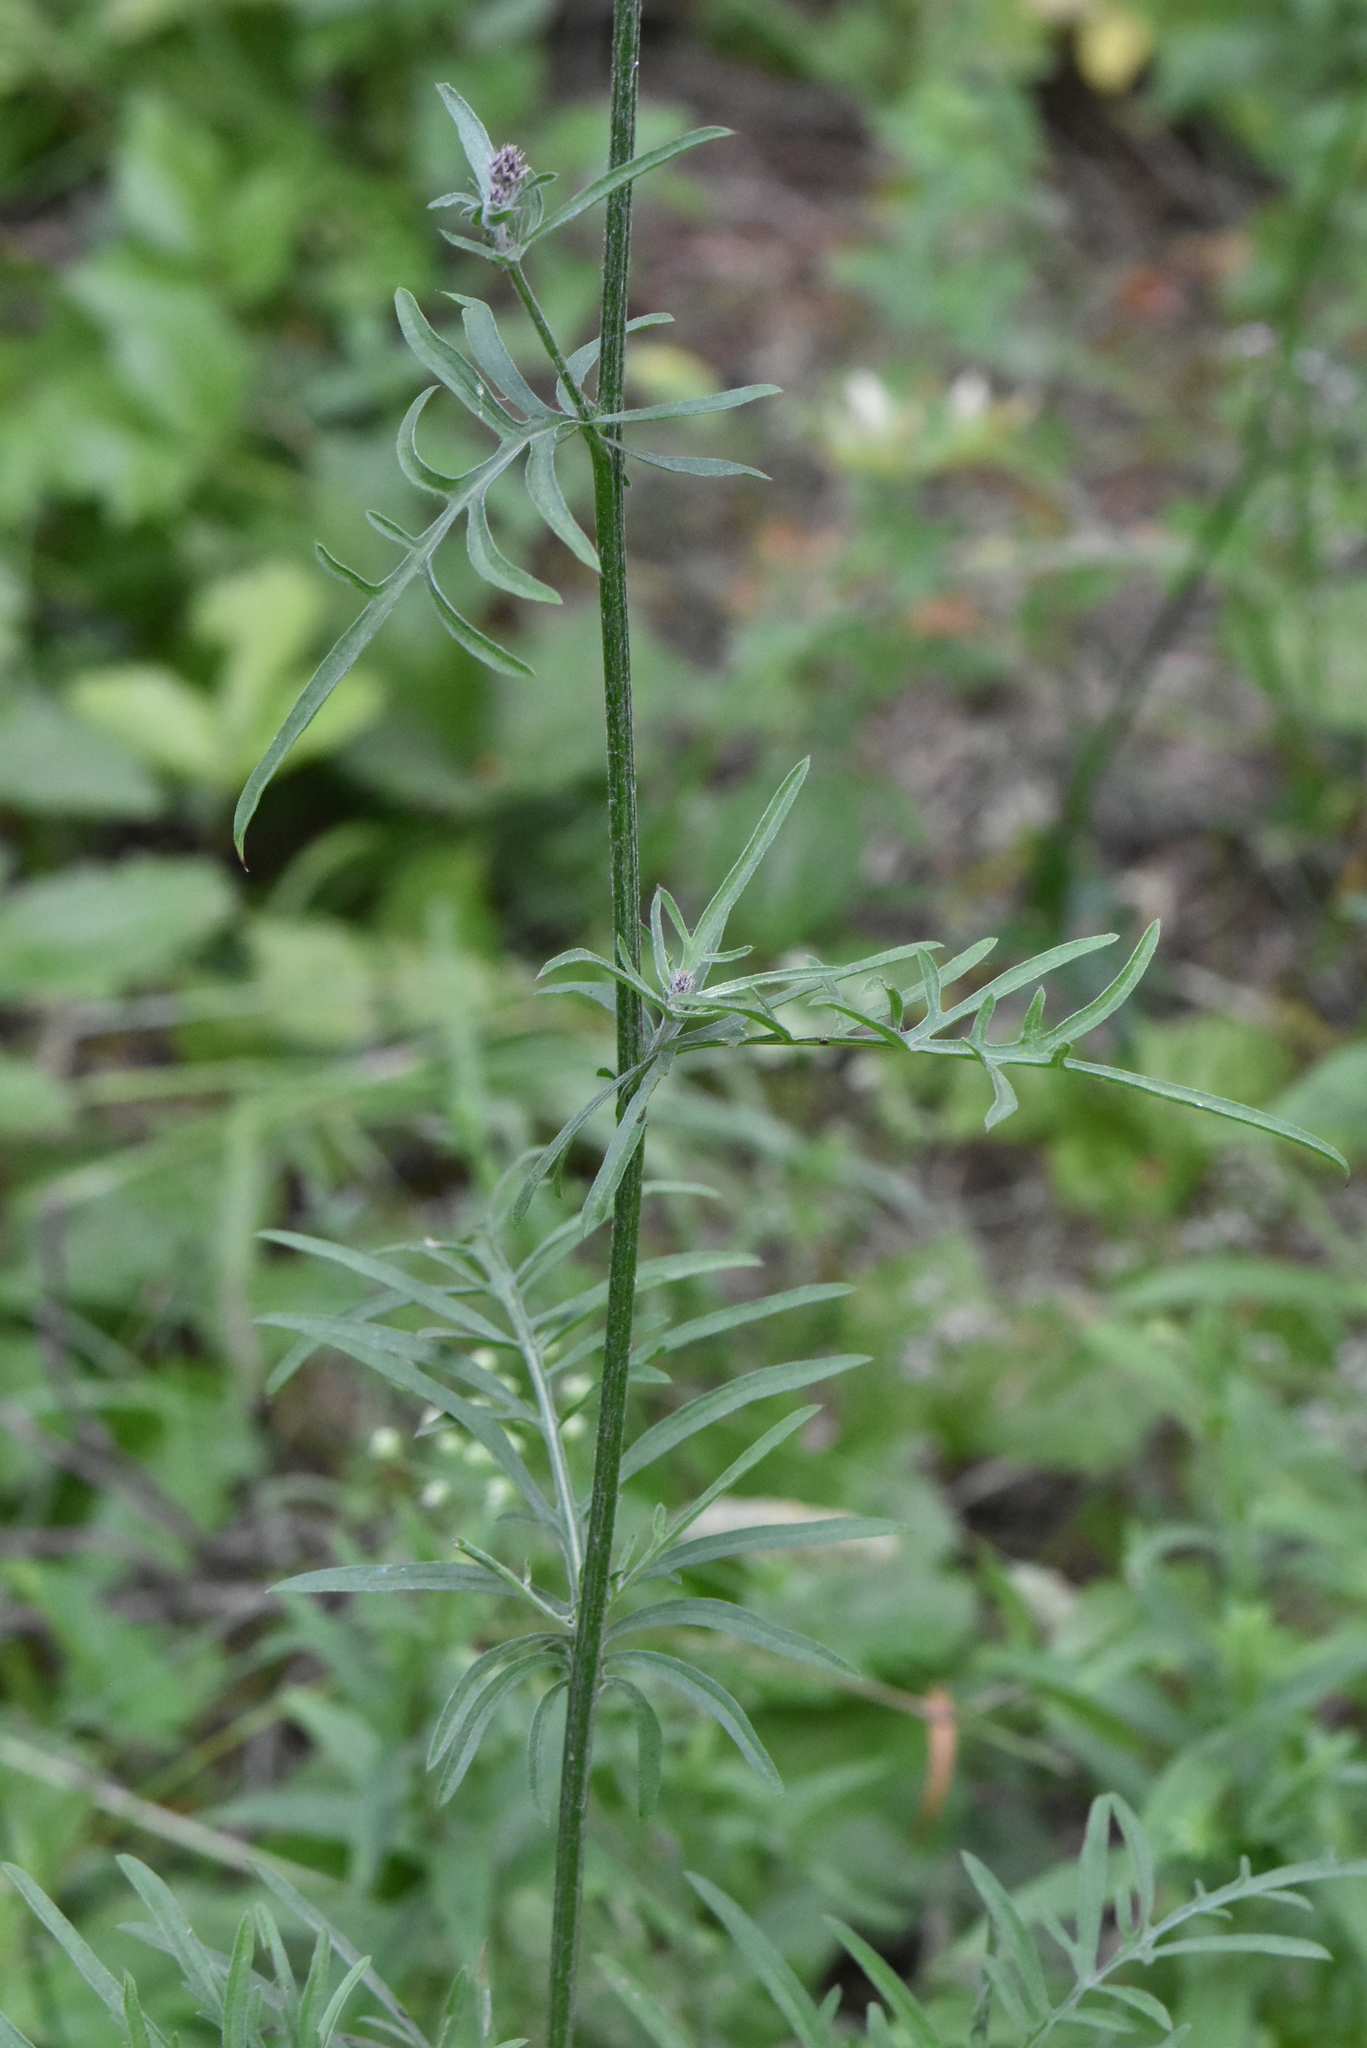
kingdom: Plantae
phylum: Tracheophyta
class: Magnoliopsida
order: Asterales
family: Asteraceae
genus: Centaurea
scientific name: Centaurea scabiosa
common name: Greater knapweed
